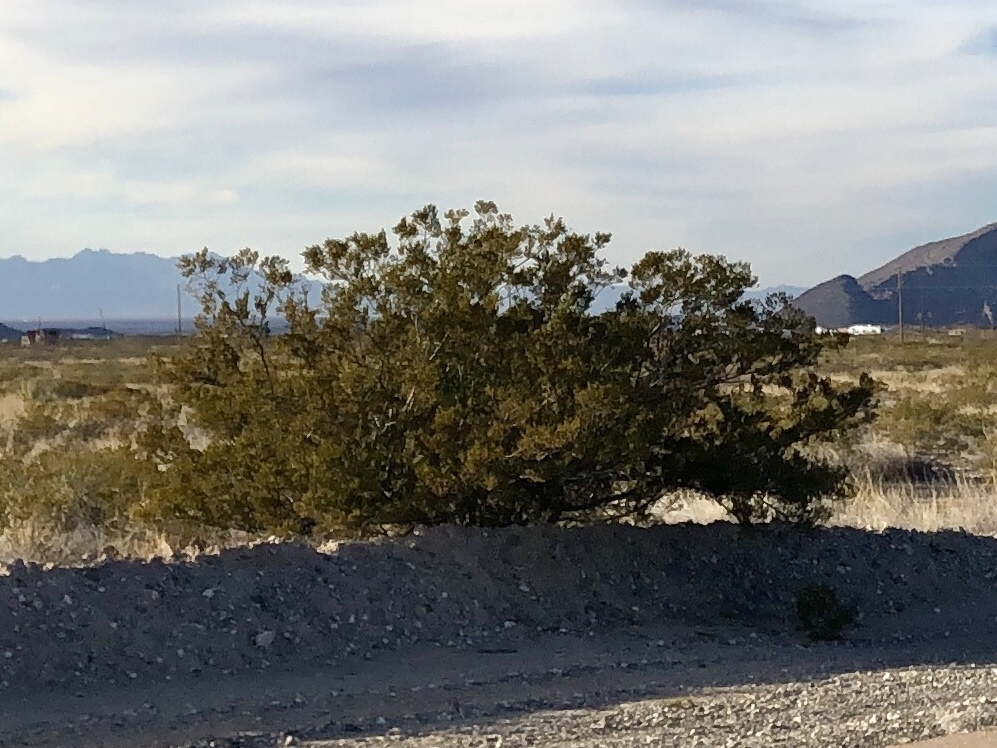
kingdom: Plantae
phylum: Tracheophyta
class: Magnoliopsida
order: Zygophyllales
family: Zygophyllaceae
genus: Larrea
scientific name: Larrea tridentata
